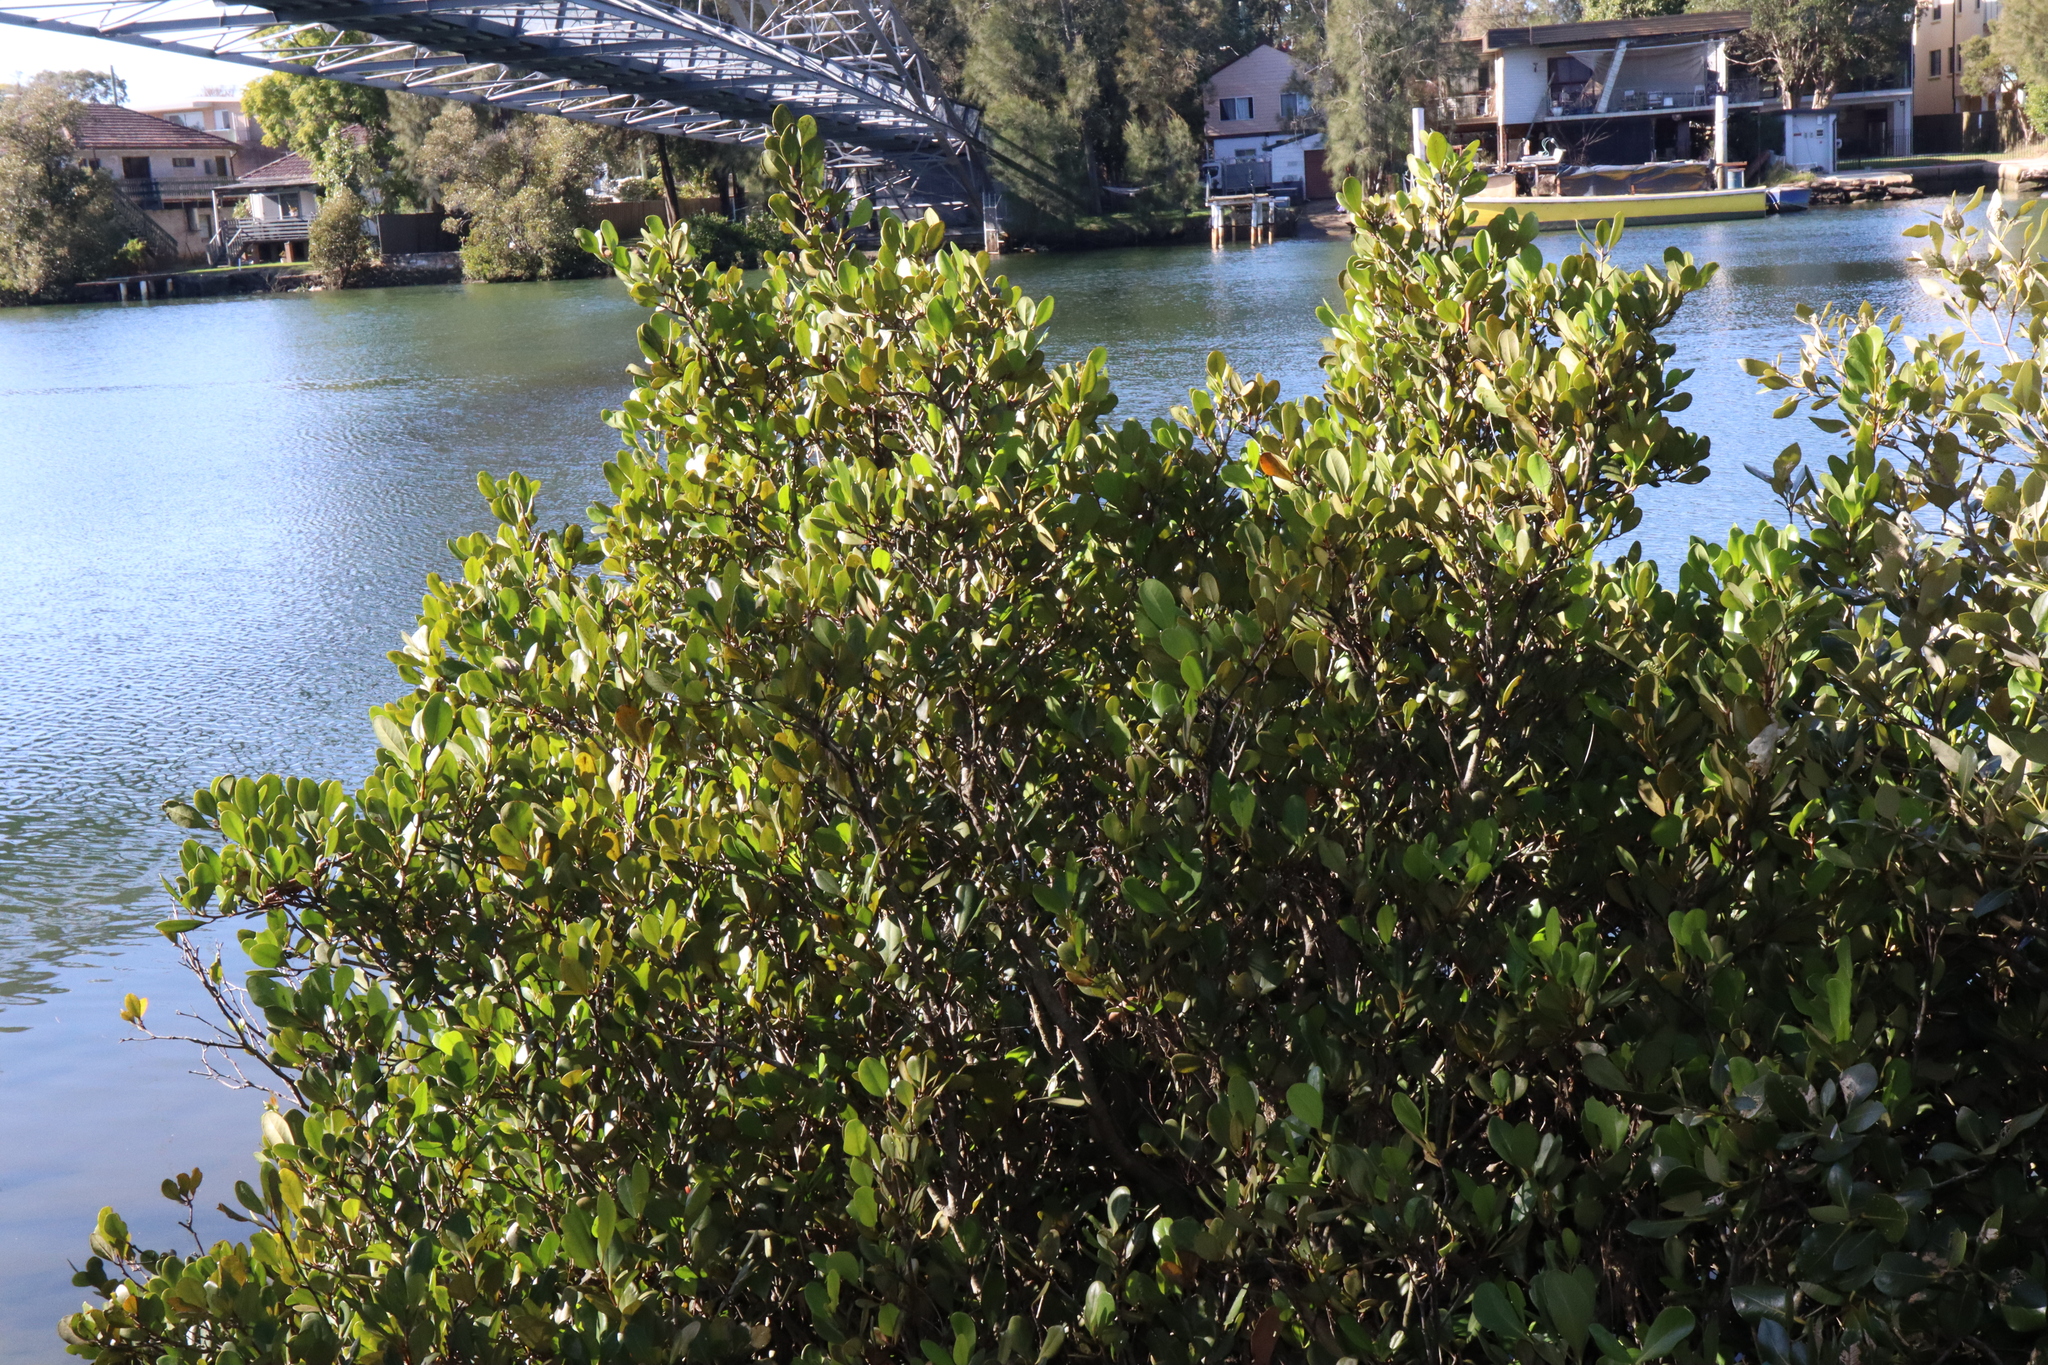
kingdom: Plantae
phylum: Tracheophyta
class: Magnoliopsida
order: Ericales
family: Primulaceae
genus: Aegiceras
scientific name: Aegiceras corniculatum
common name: River mangrove
